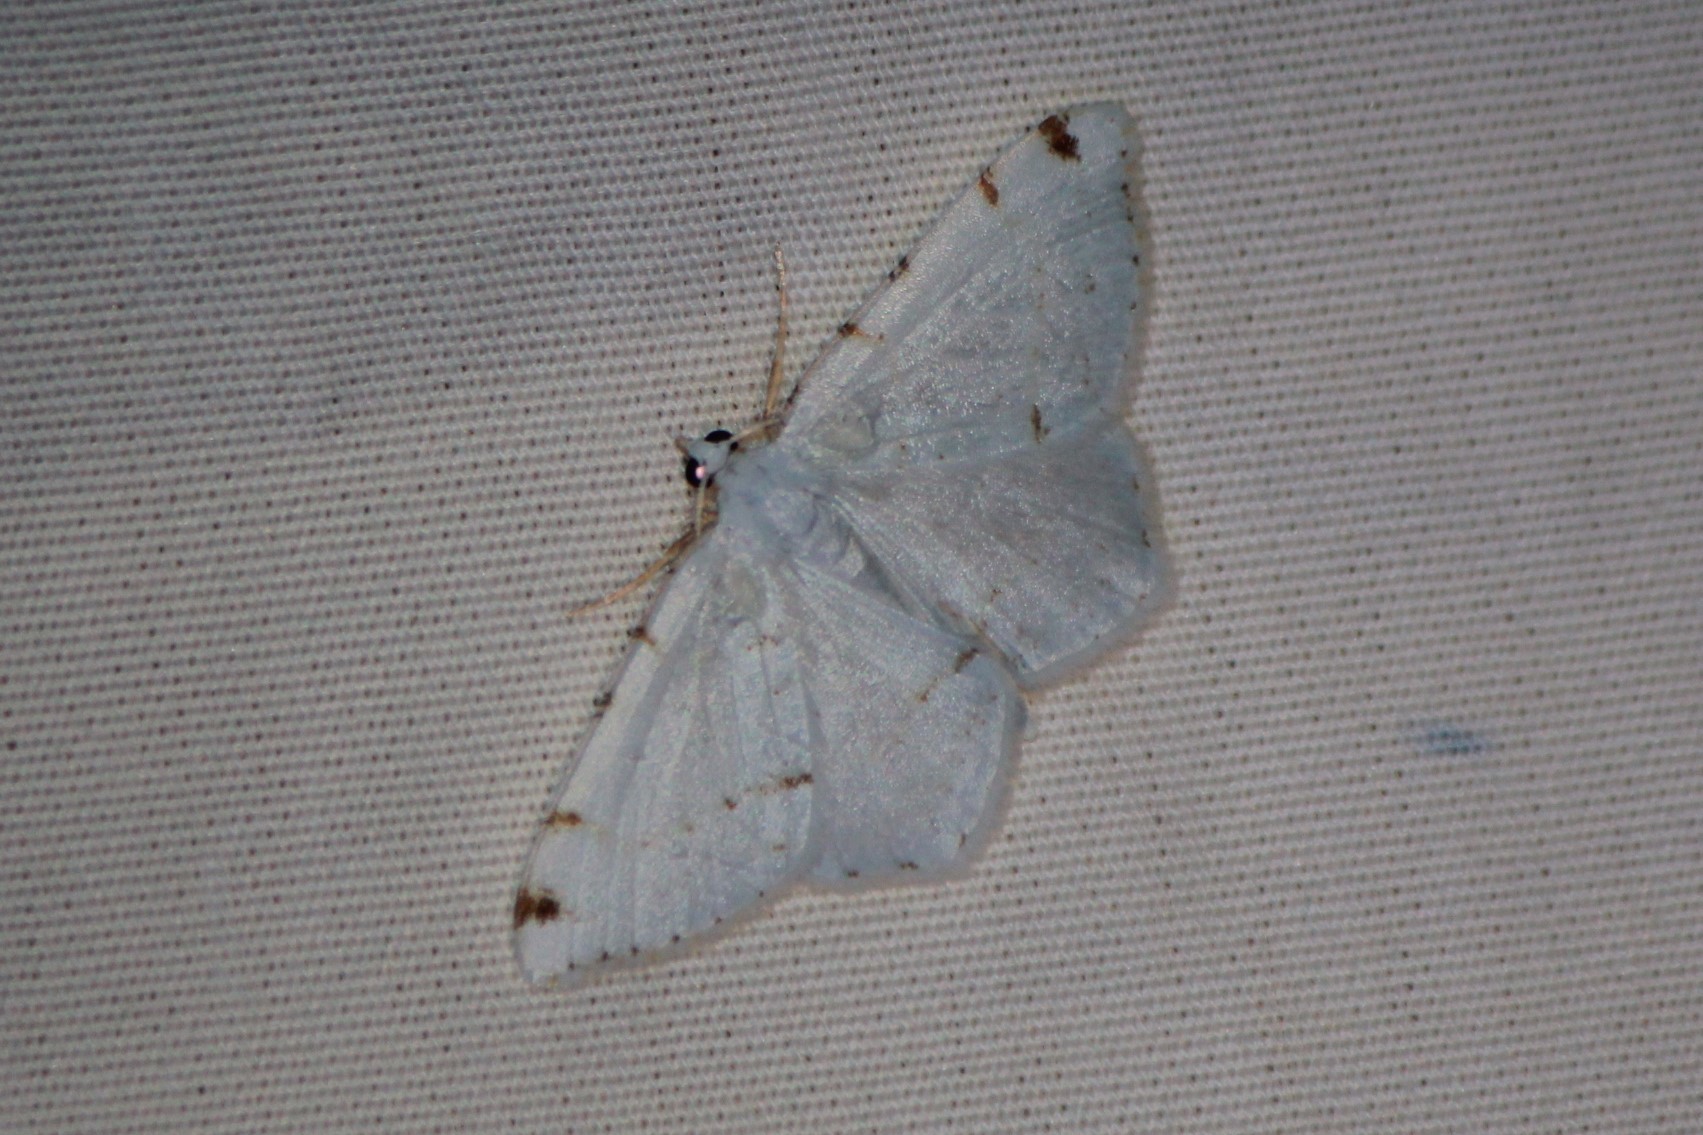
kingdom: Animalia
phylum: Arthropoda
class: Insecta
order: Lepidoptera
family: Geometridae
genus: Macaria
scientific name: Macaria pustularia
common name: Lesser maple spanworm moth
